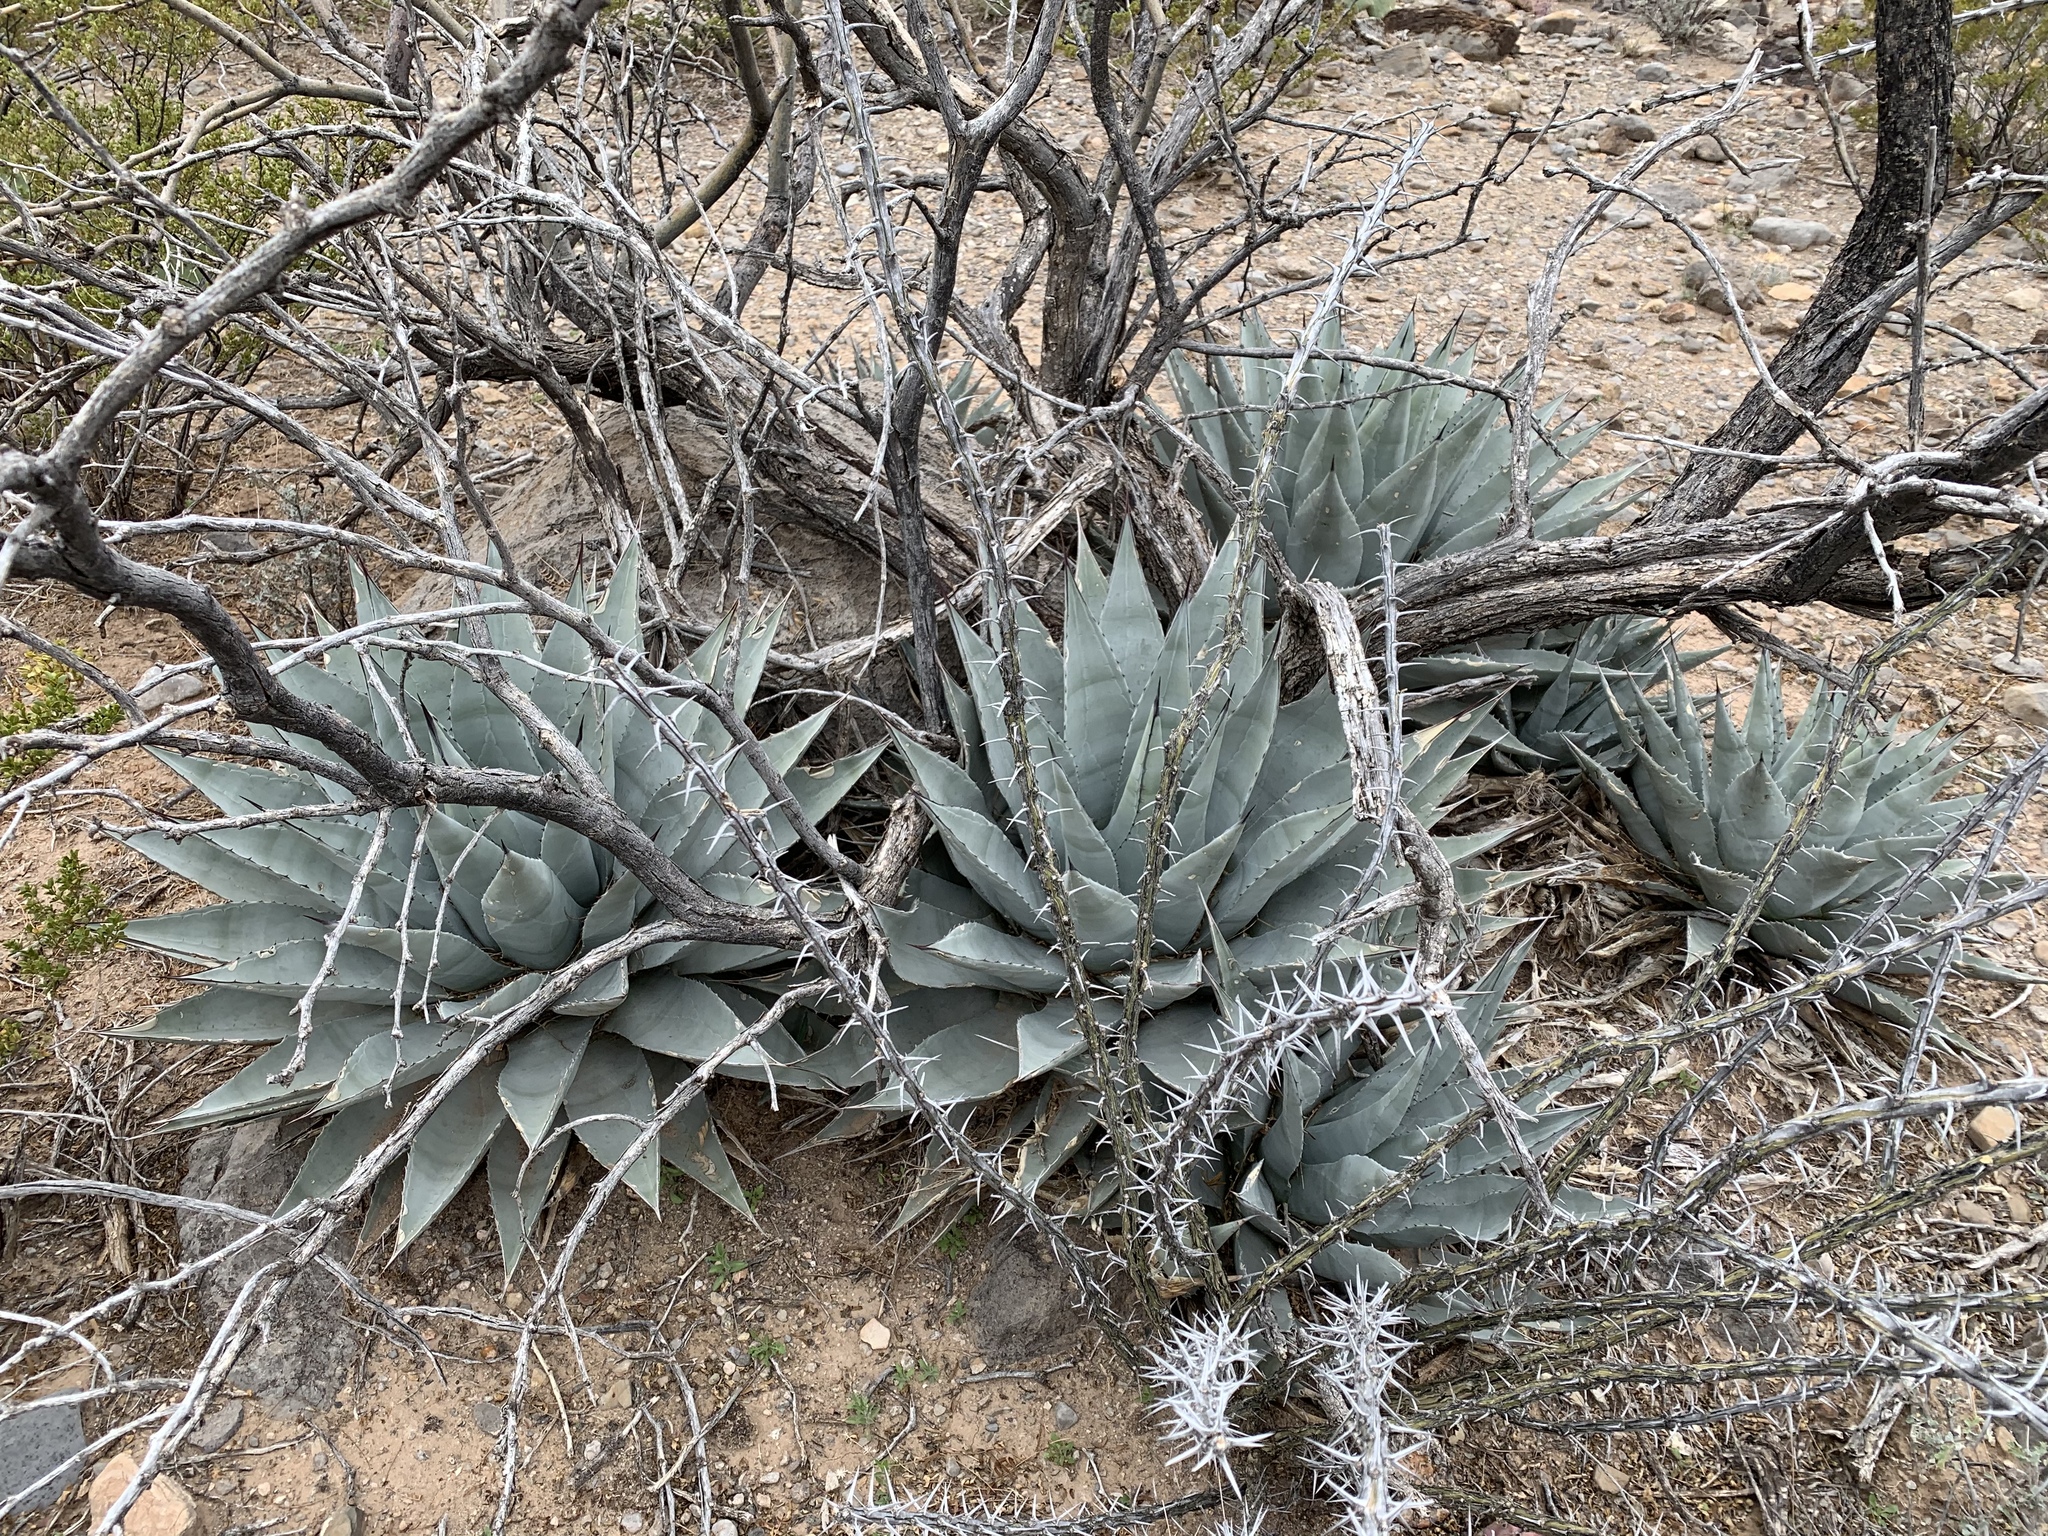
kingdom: Plantae
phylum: Tracheophyta
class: Liliopsida
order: Asparagales
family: Asparagaceae
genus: Agave
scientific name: Agave parryi
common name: Parry's agave
